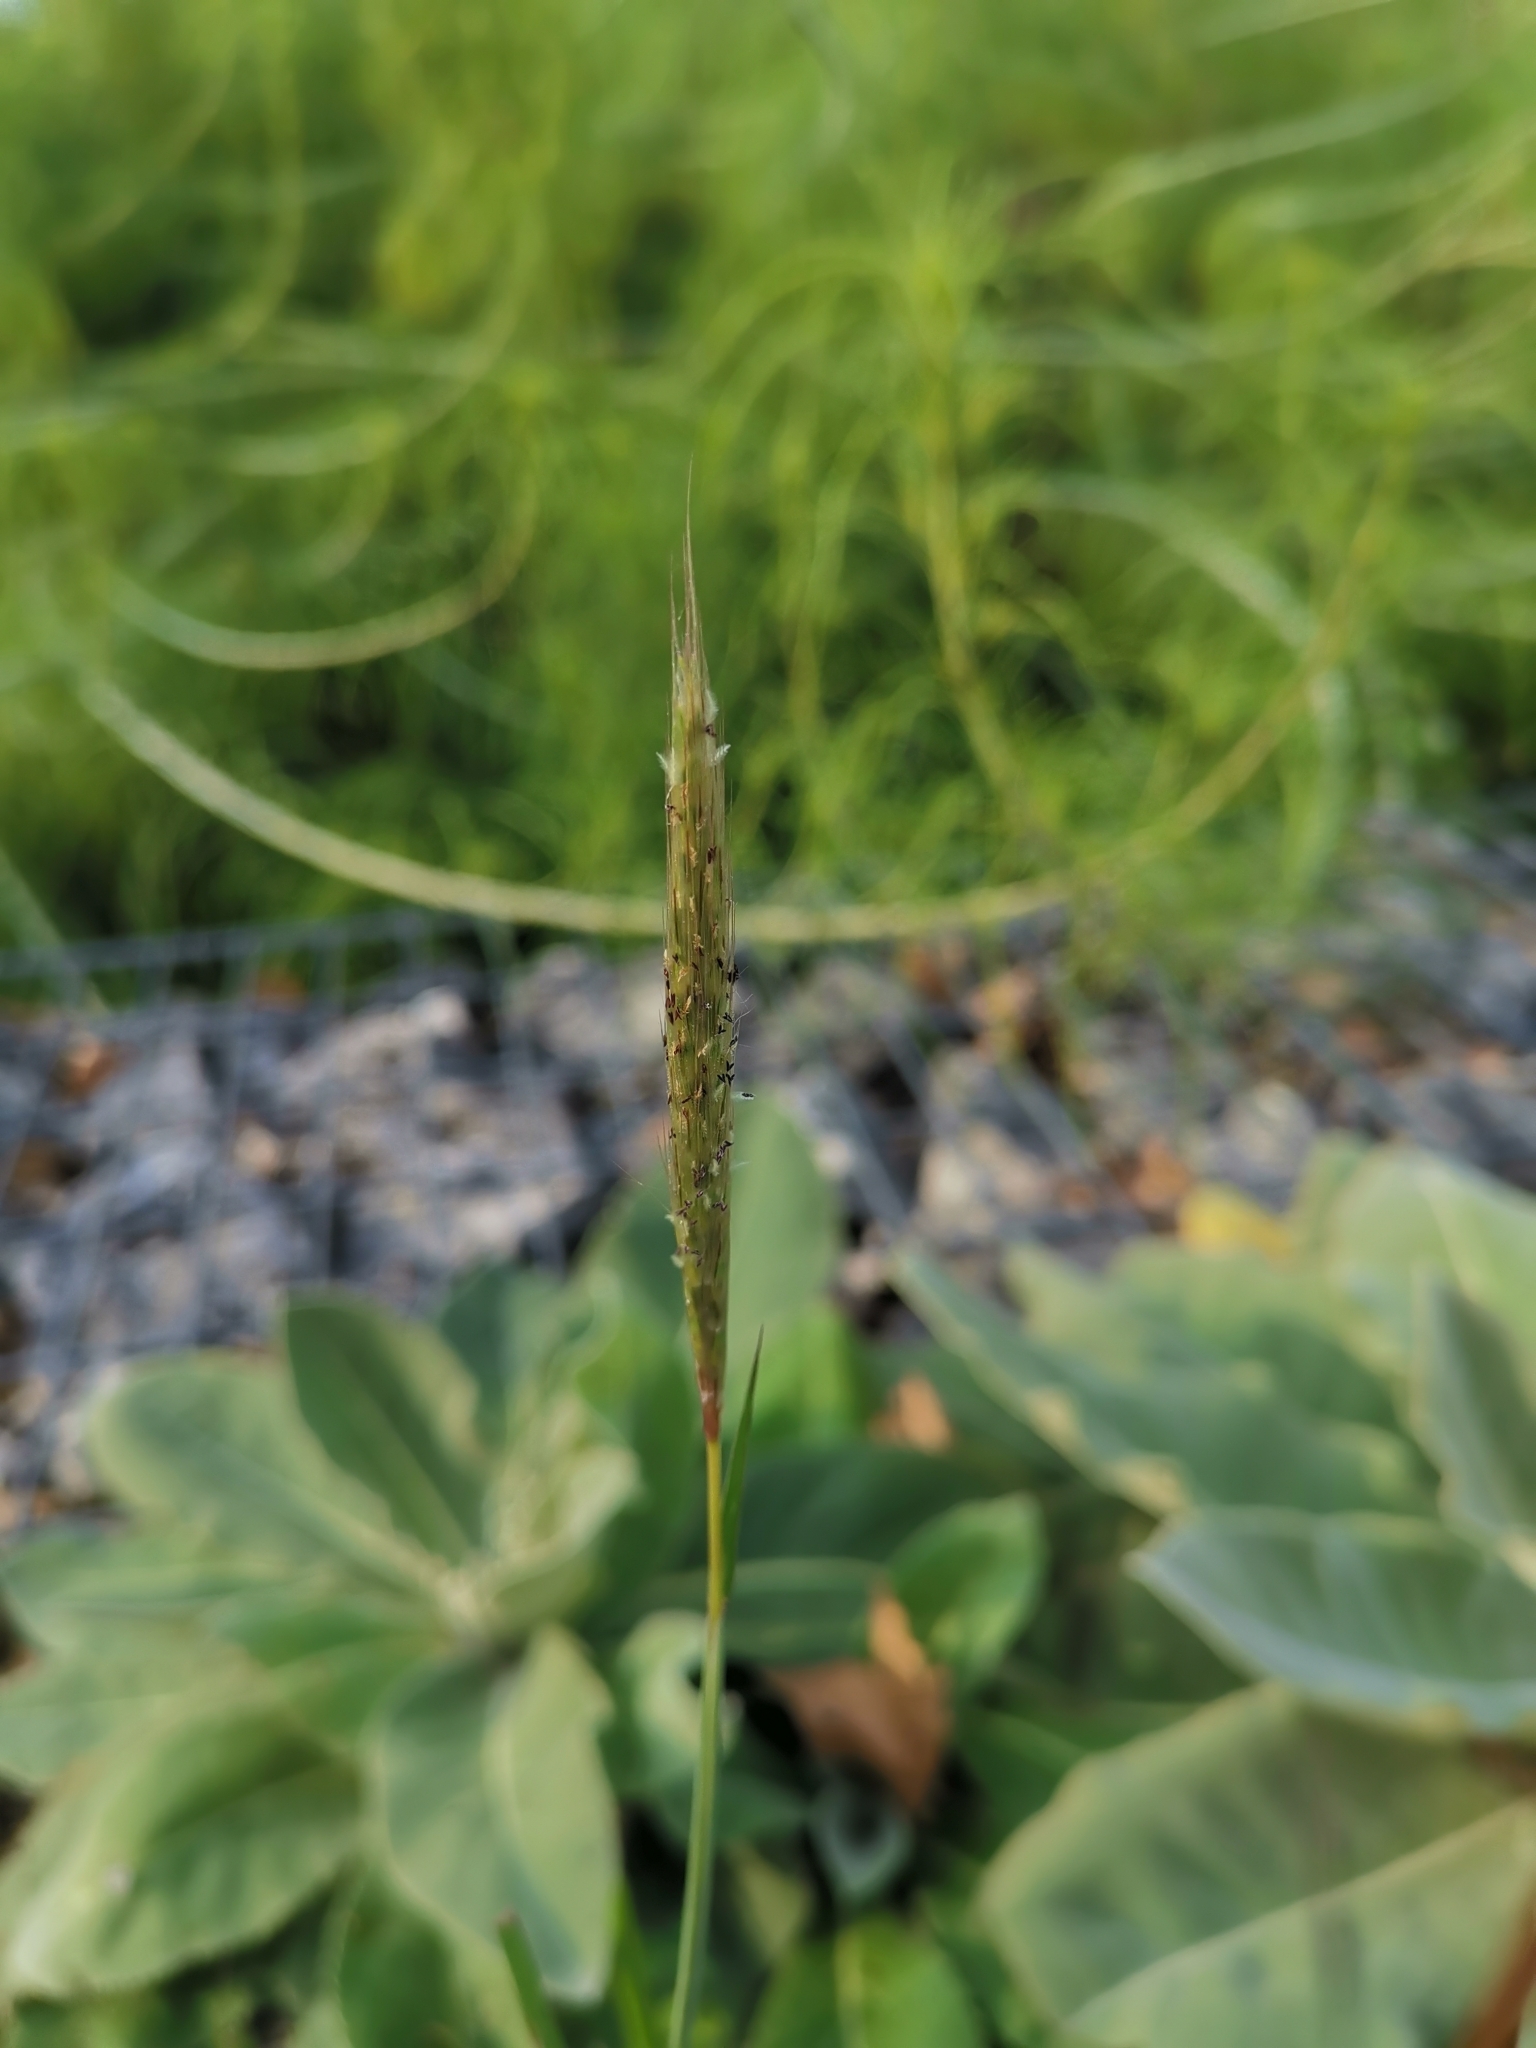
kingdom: Plantae
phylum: Tracheophyta
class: Liliopsida
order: Poales
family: Poaceae
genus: Bothriochloa
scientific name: Bothriochloa barbinodis
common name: Cane bluestem
